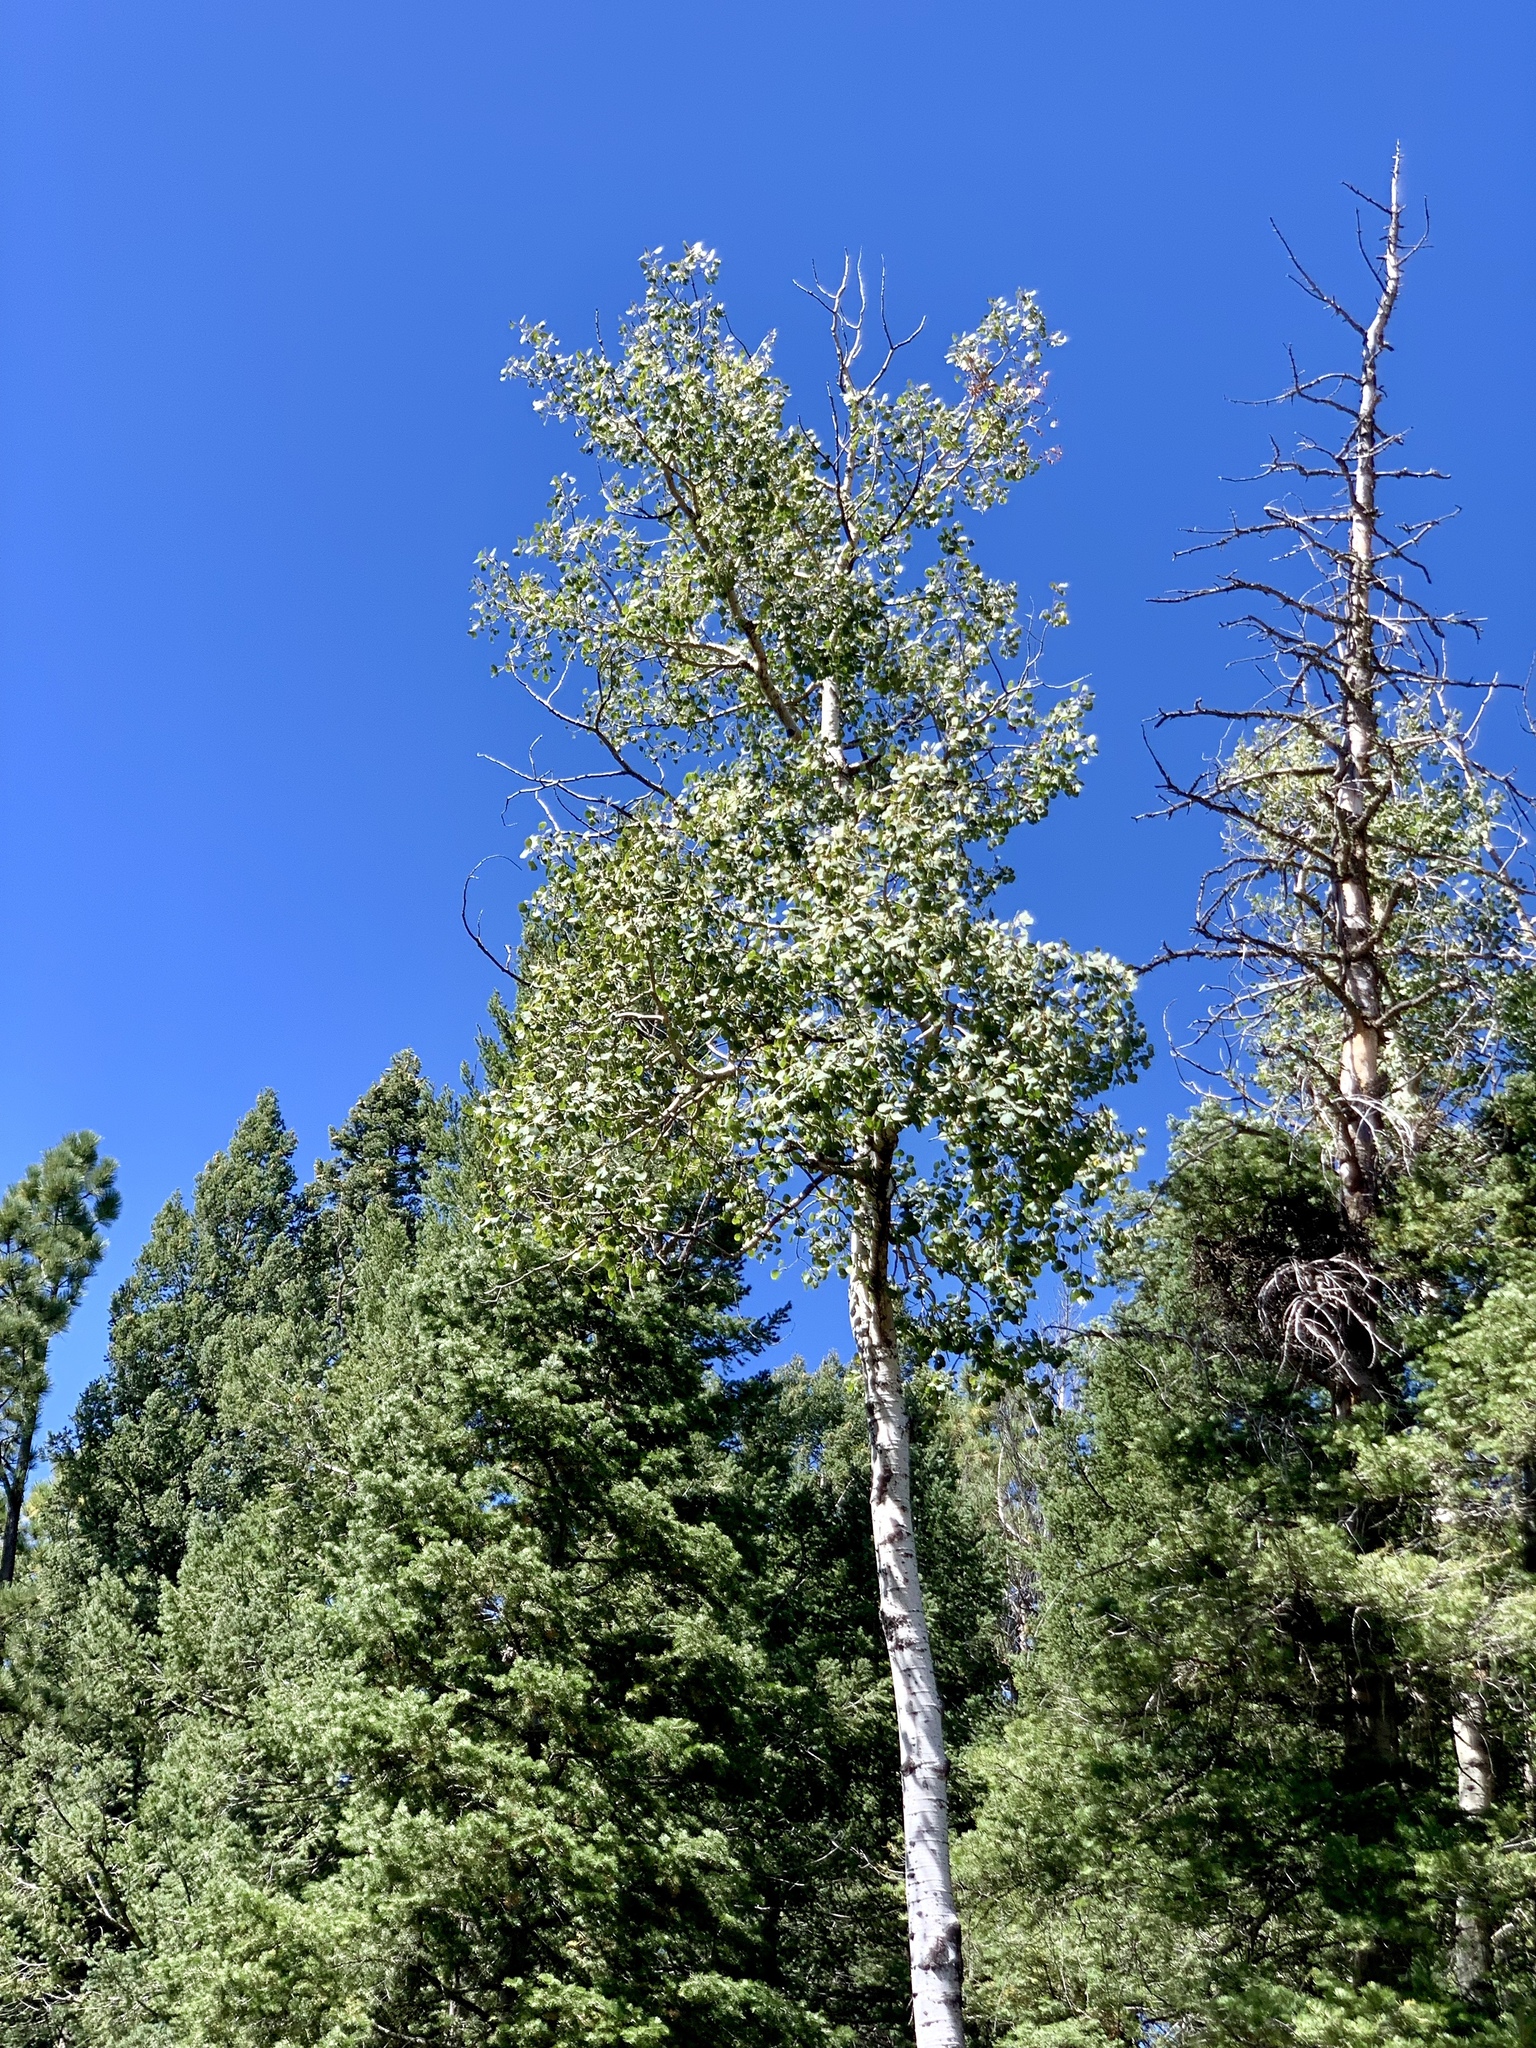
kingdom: Plantae
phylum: Tracheophyta
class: Magnoliopsida
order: Malpighiales
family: Salicaceae
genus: Populus
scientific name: Populus tremuloides
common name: Quaking aspen
